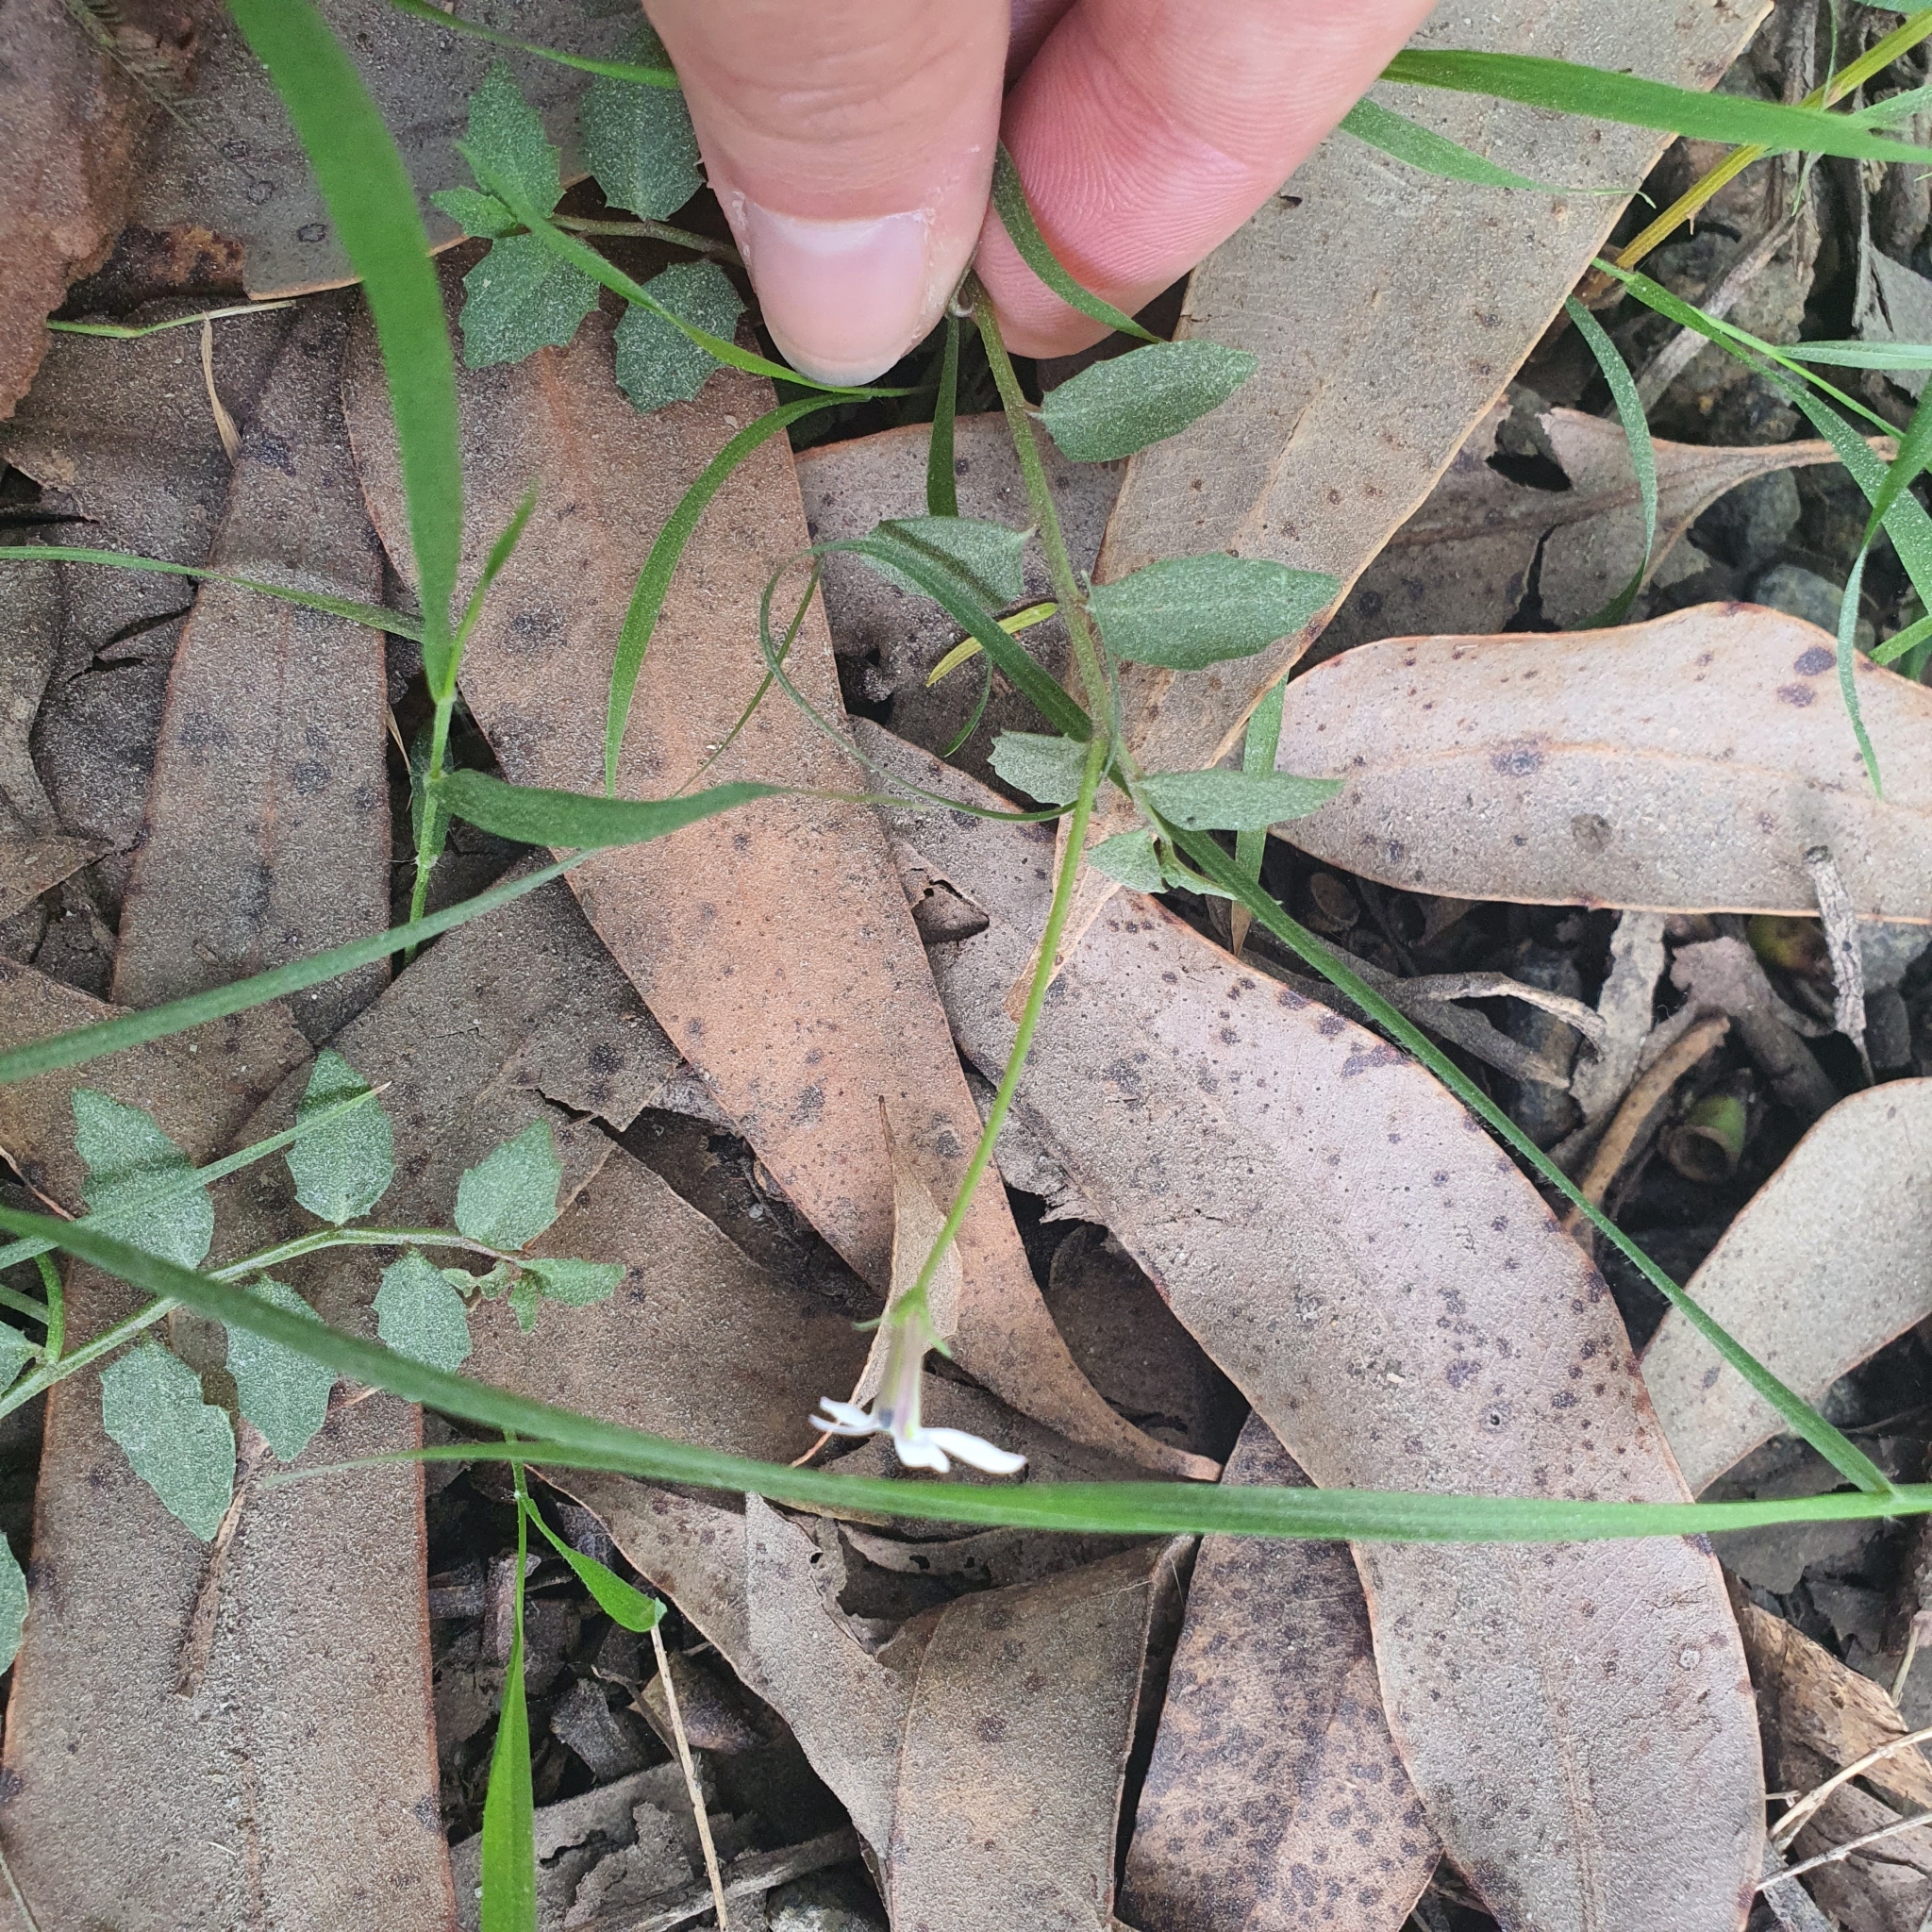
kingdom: Plantae
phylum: Tracheophyta
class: Magnoliopsida
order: Asterales
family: Campanulaceae
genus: Lobelia
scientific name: Lobelia purpurascens
